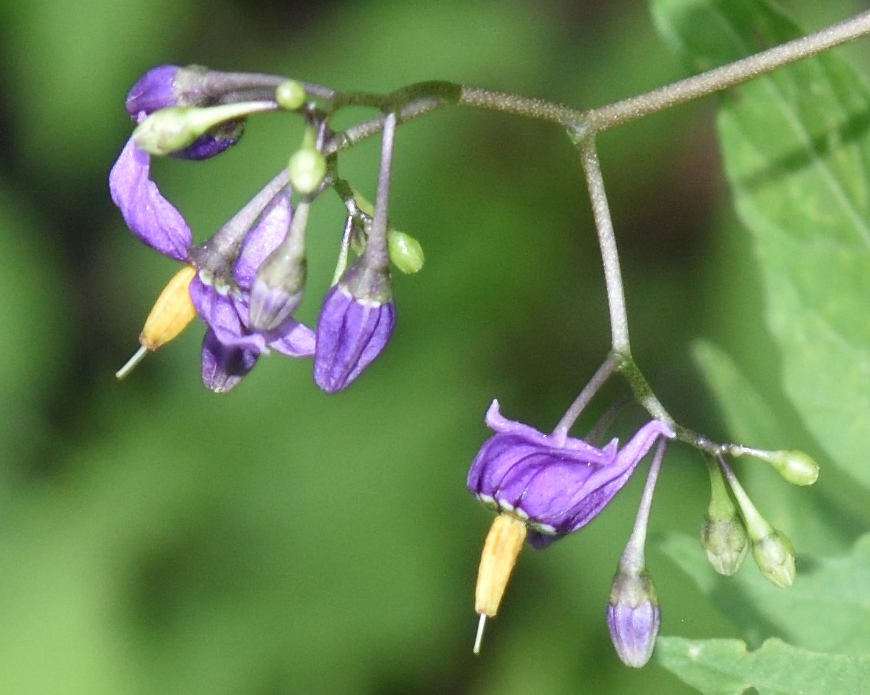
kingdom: Plantae
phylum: Tracheophyta
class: Magnoliopsida
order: Solanales
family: Solanaceae
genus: Solanum
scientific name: Solanum dulcamara
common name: Climbing nightshade
